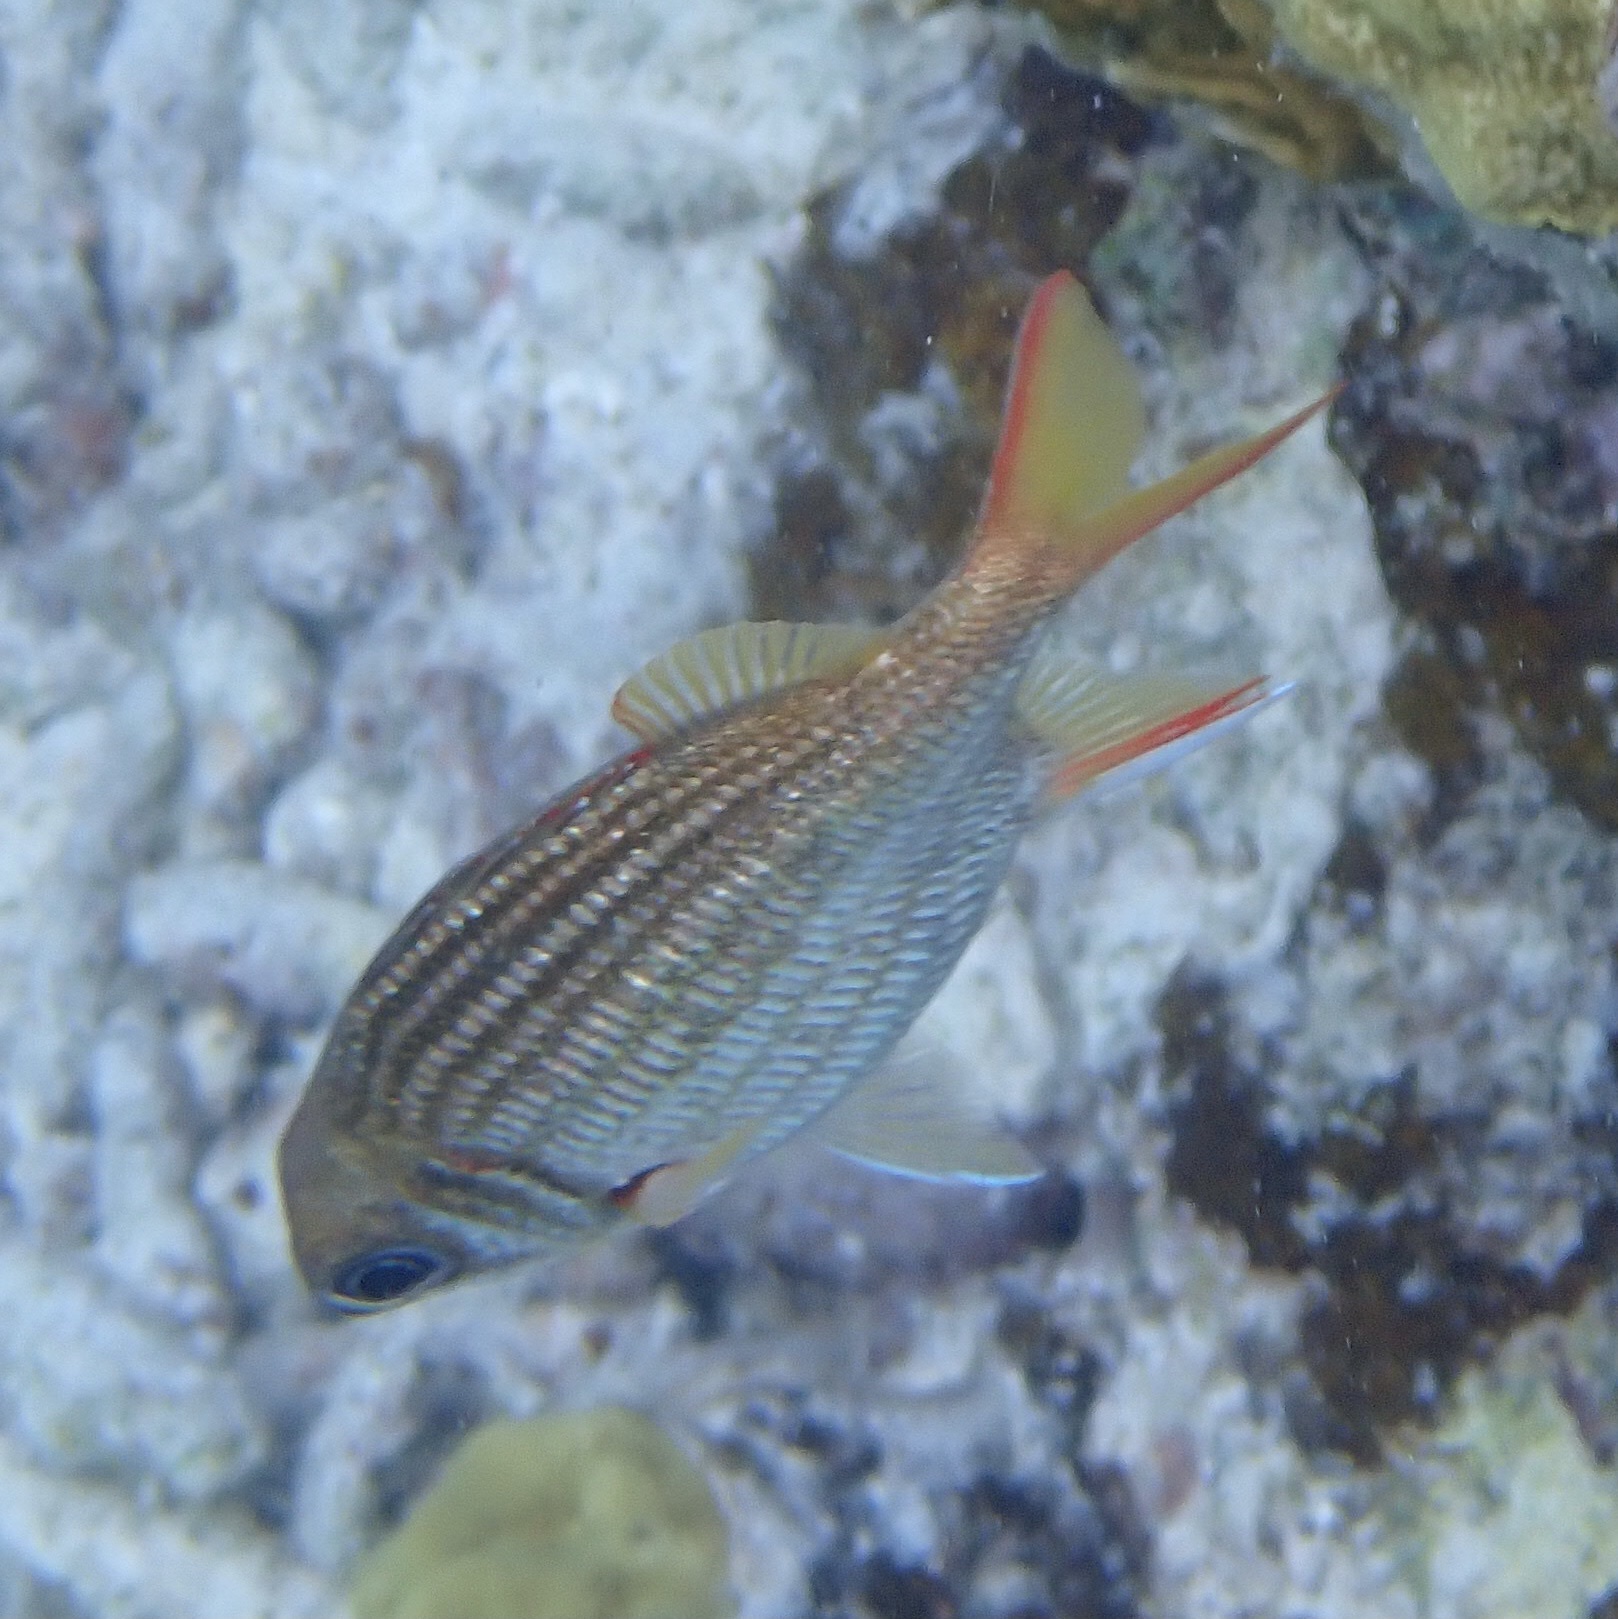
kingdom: Animalia
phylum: Chordata
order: Beryciformes
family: Holocentridae
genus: Neoniphon
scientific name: Neoniphon vexillarium
